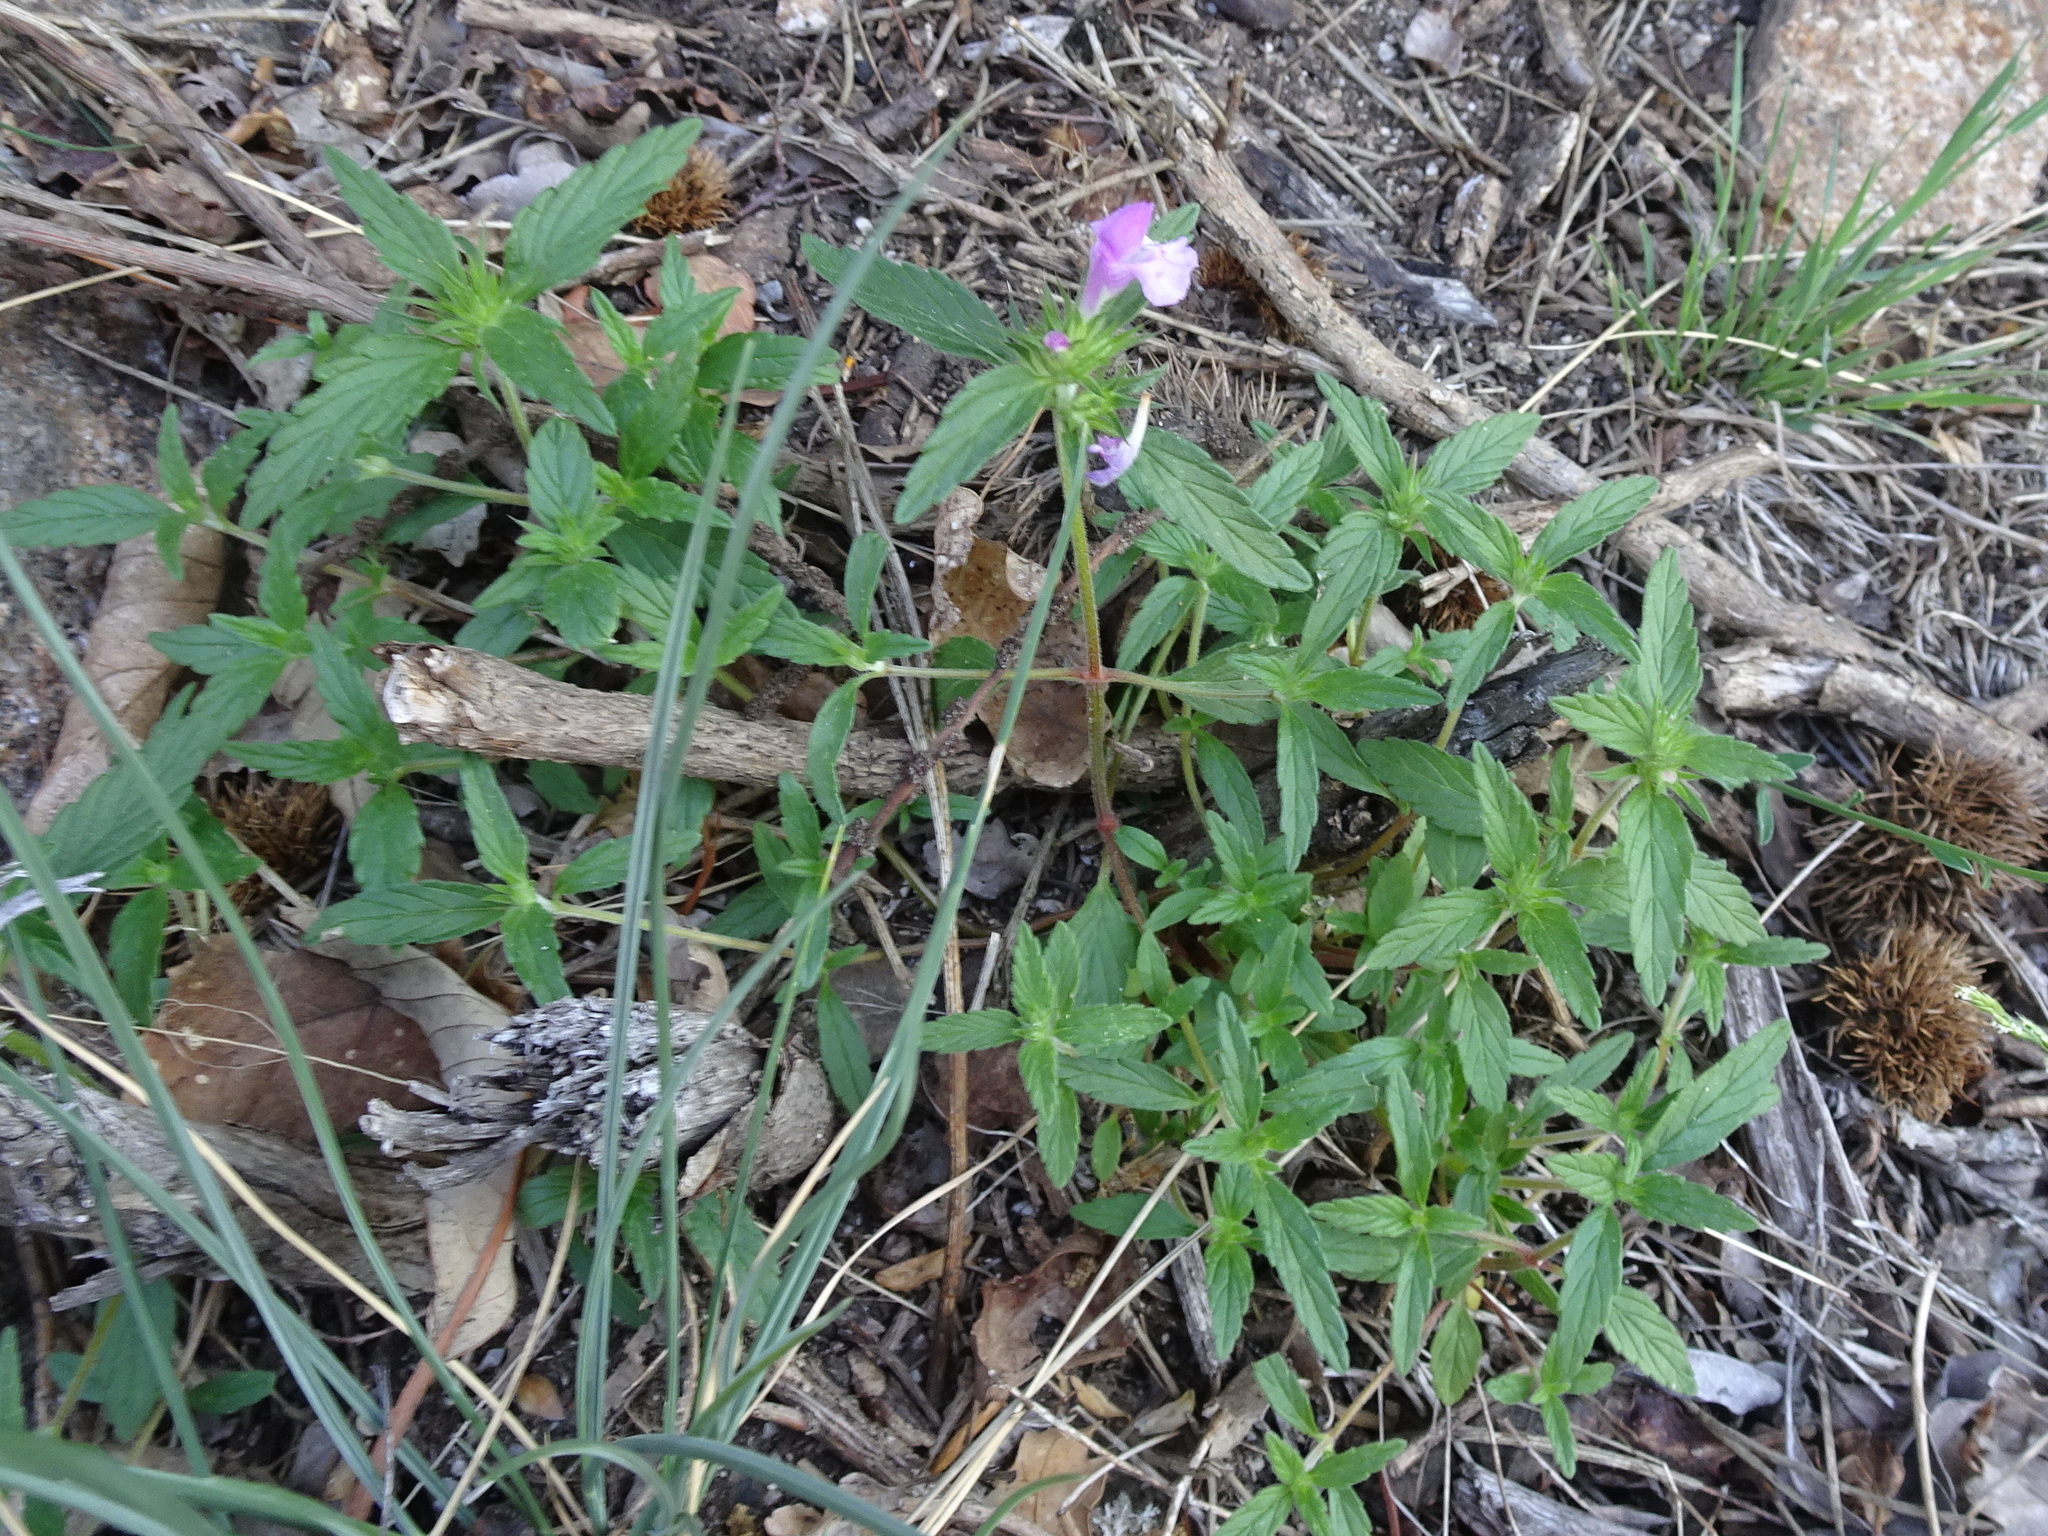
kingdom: Plantae
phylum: Tracheophyta
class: Magnoliopsida
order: Lamiales
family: Lamiaceae
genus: Galeopsis
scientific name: Galeopsis ladanum
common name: Broad-leaved hemp-nettle
